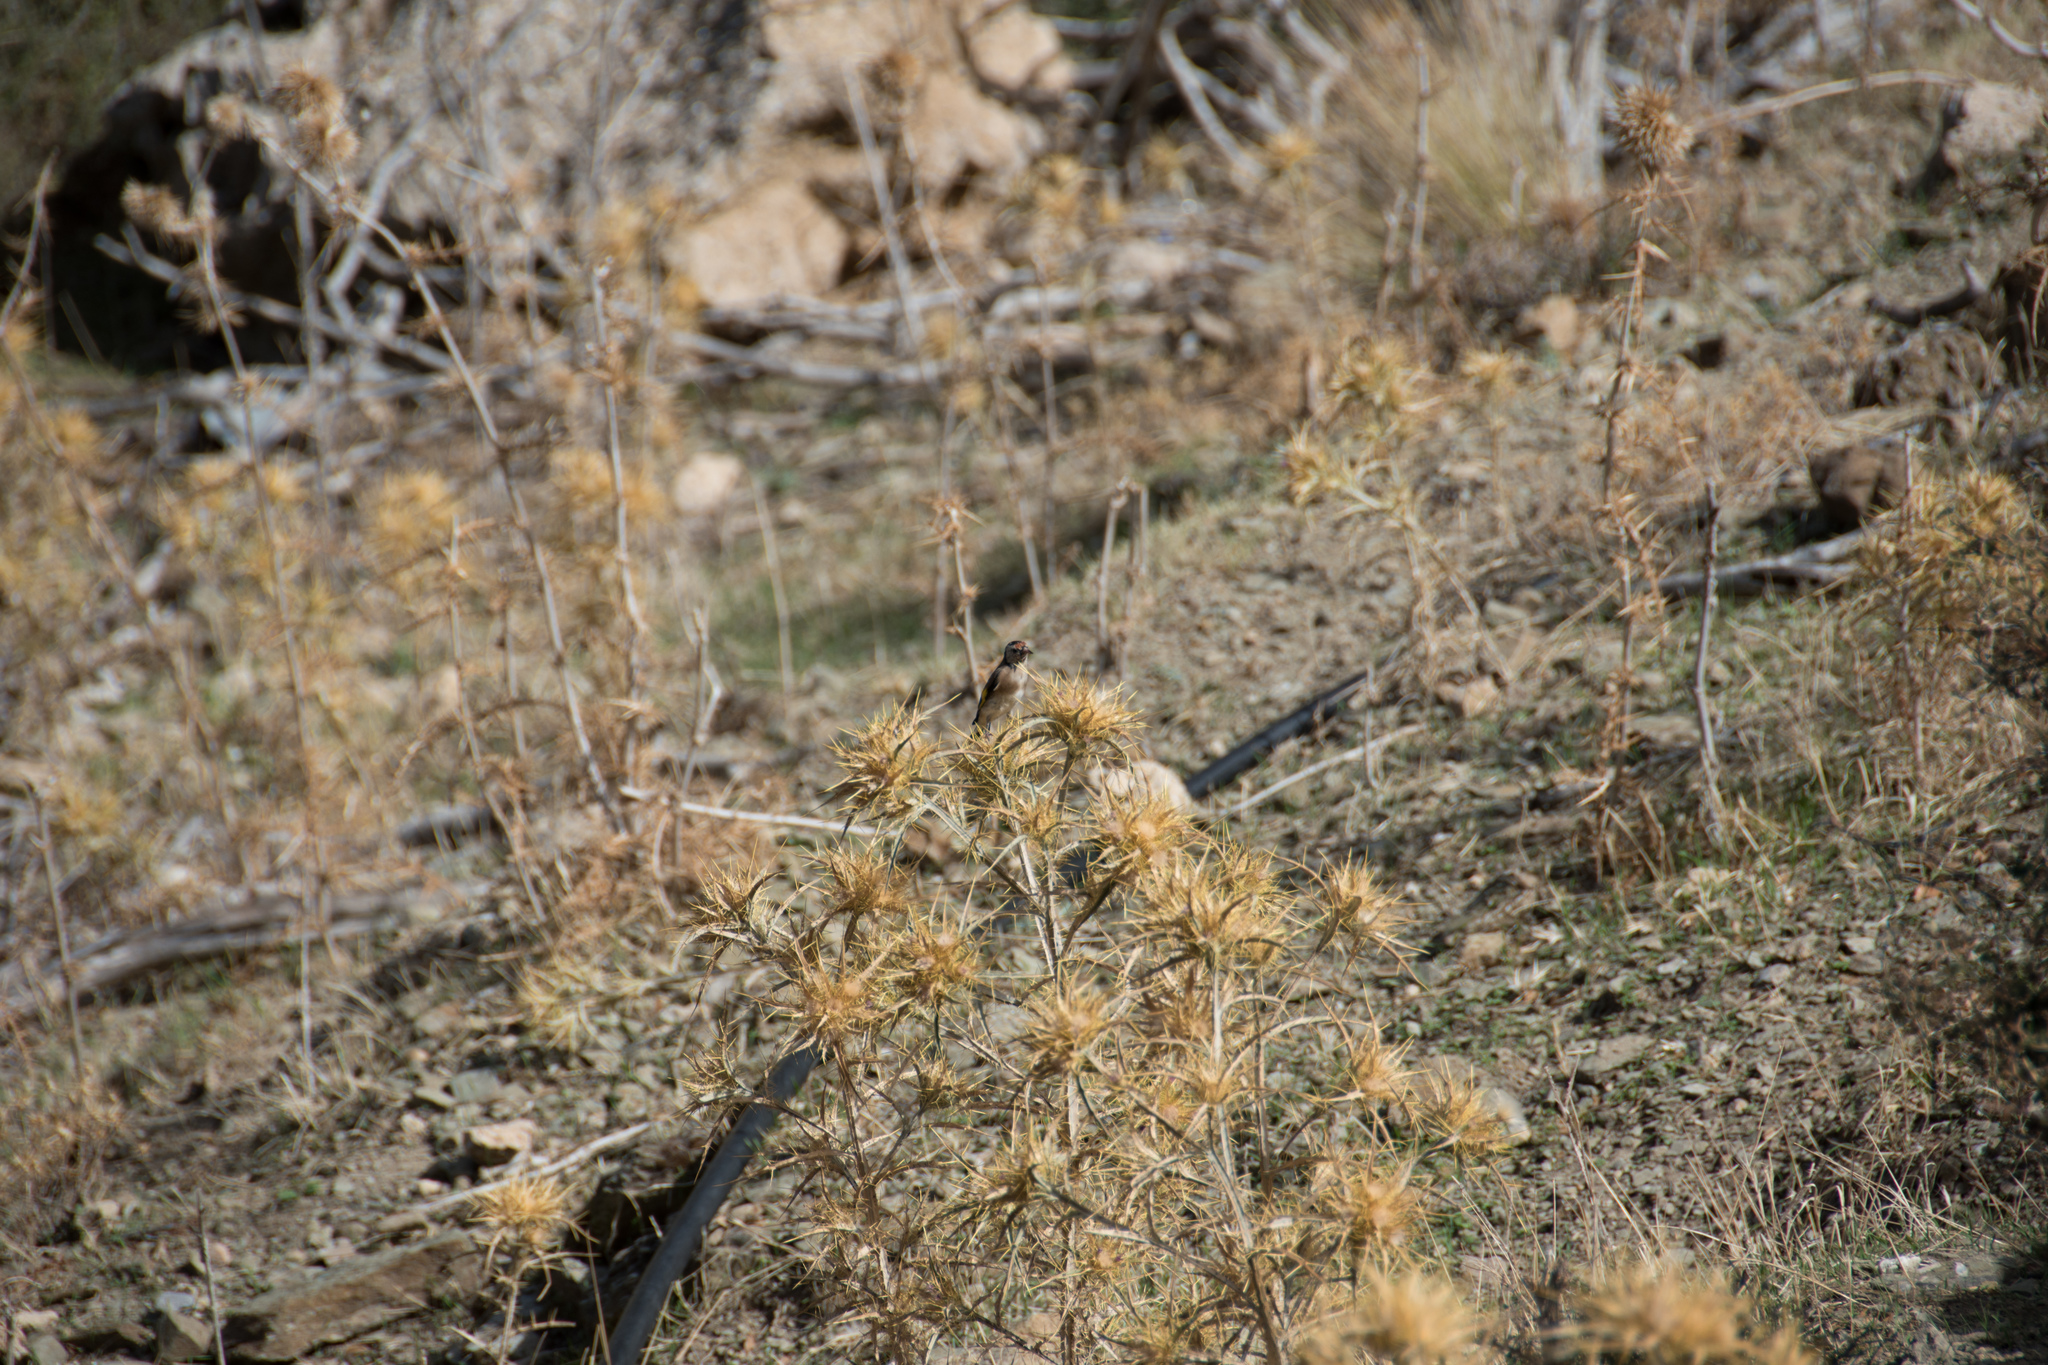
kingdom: Animalia
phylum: Chordata
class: Aves
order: Passeriformes
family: Fringillidae
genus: Carduelis
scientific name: Carduelis carduelis
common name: European goldfinch
